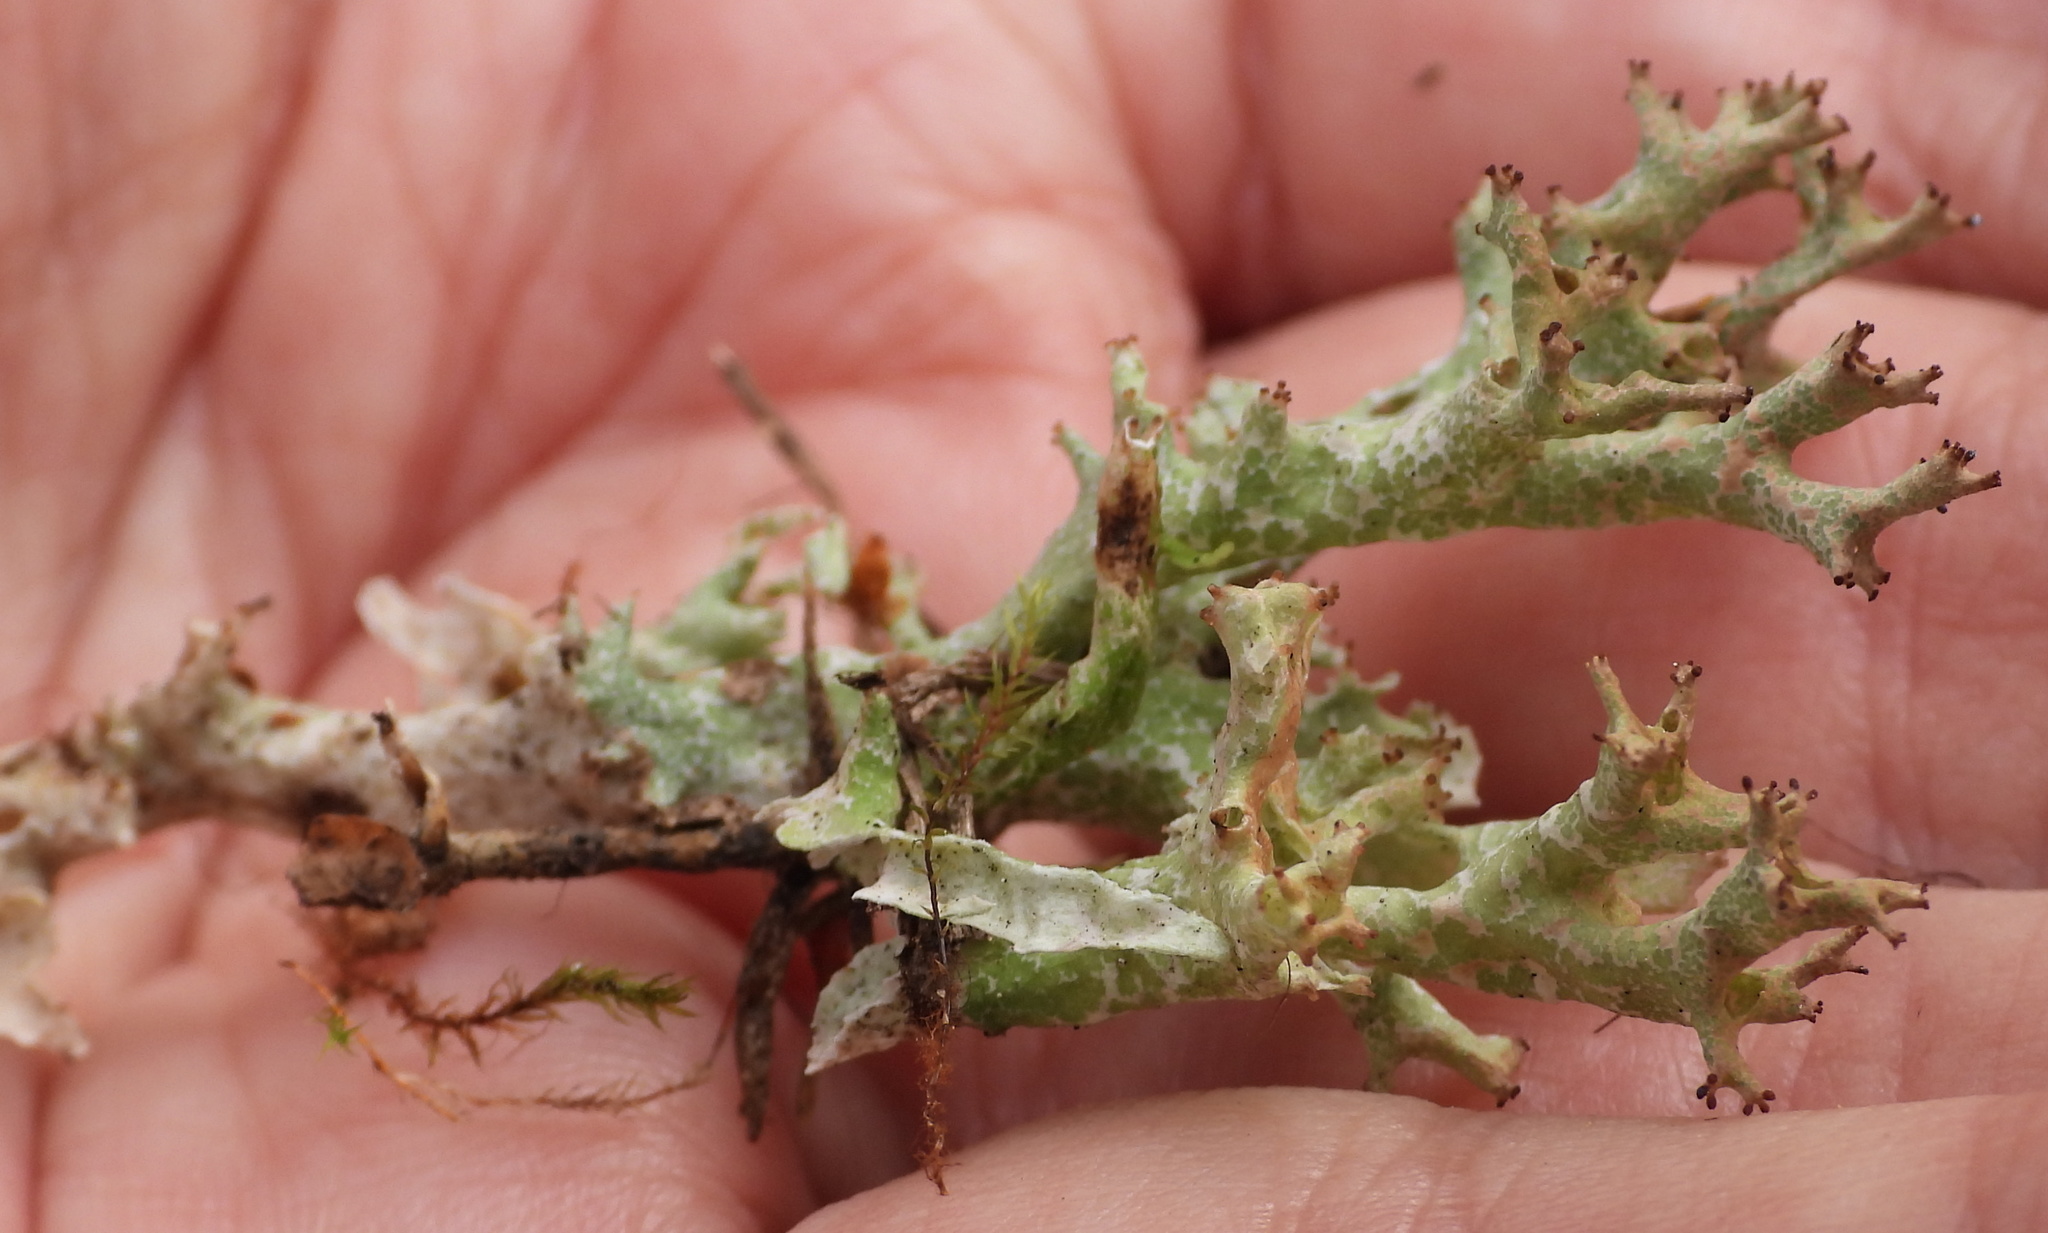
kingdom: Fungi
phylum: Ascomycota
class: Lecanoromycetes
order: Lecanorales
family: Cladoniaceae
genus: Cladonia
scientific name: Cladonia crispata
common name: Organ-pipe lichen
